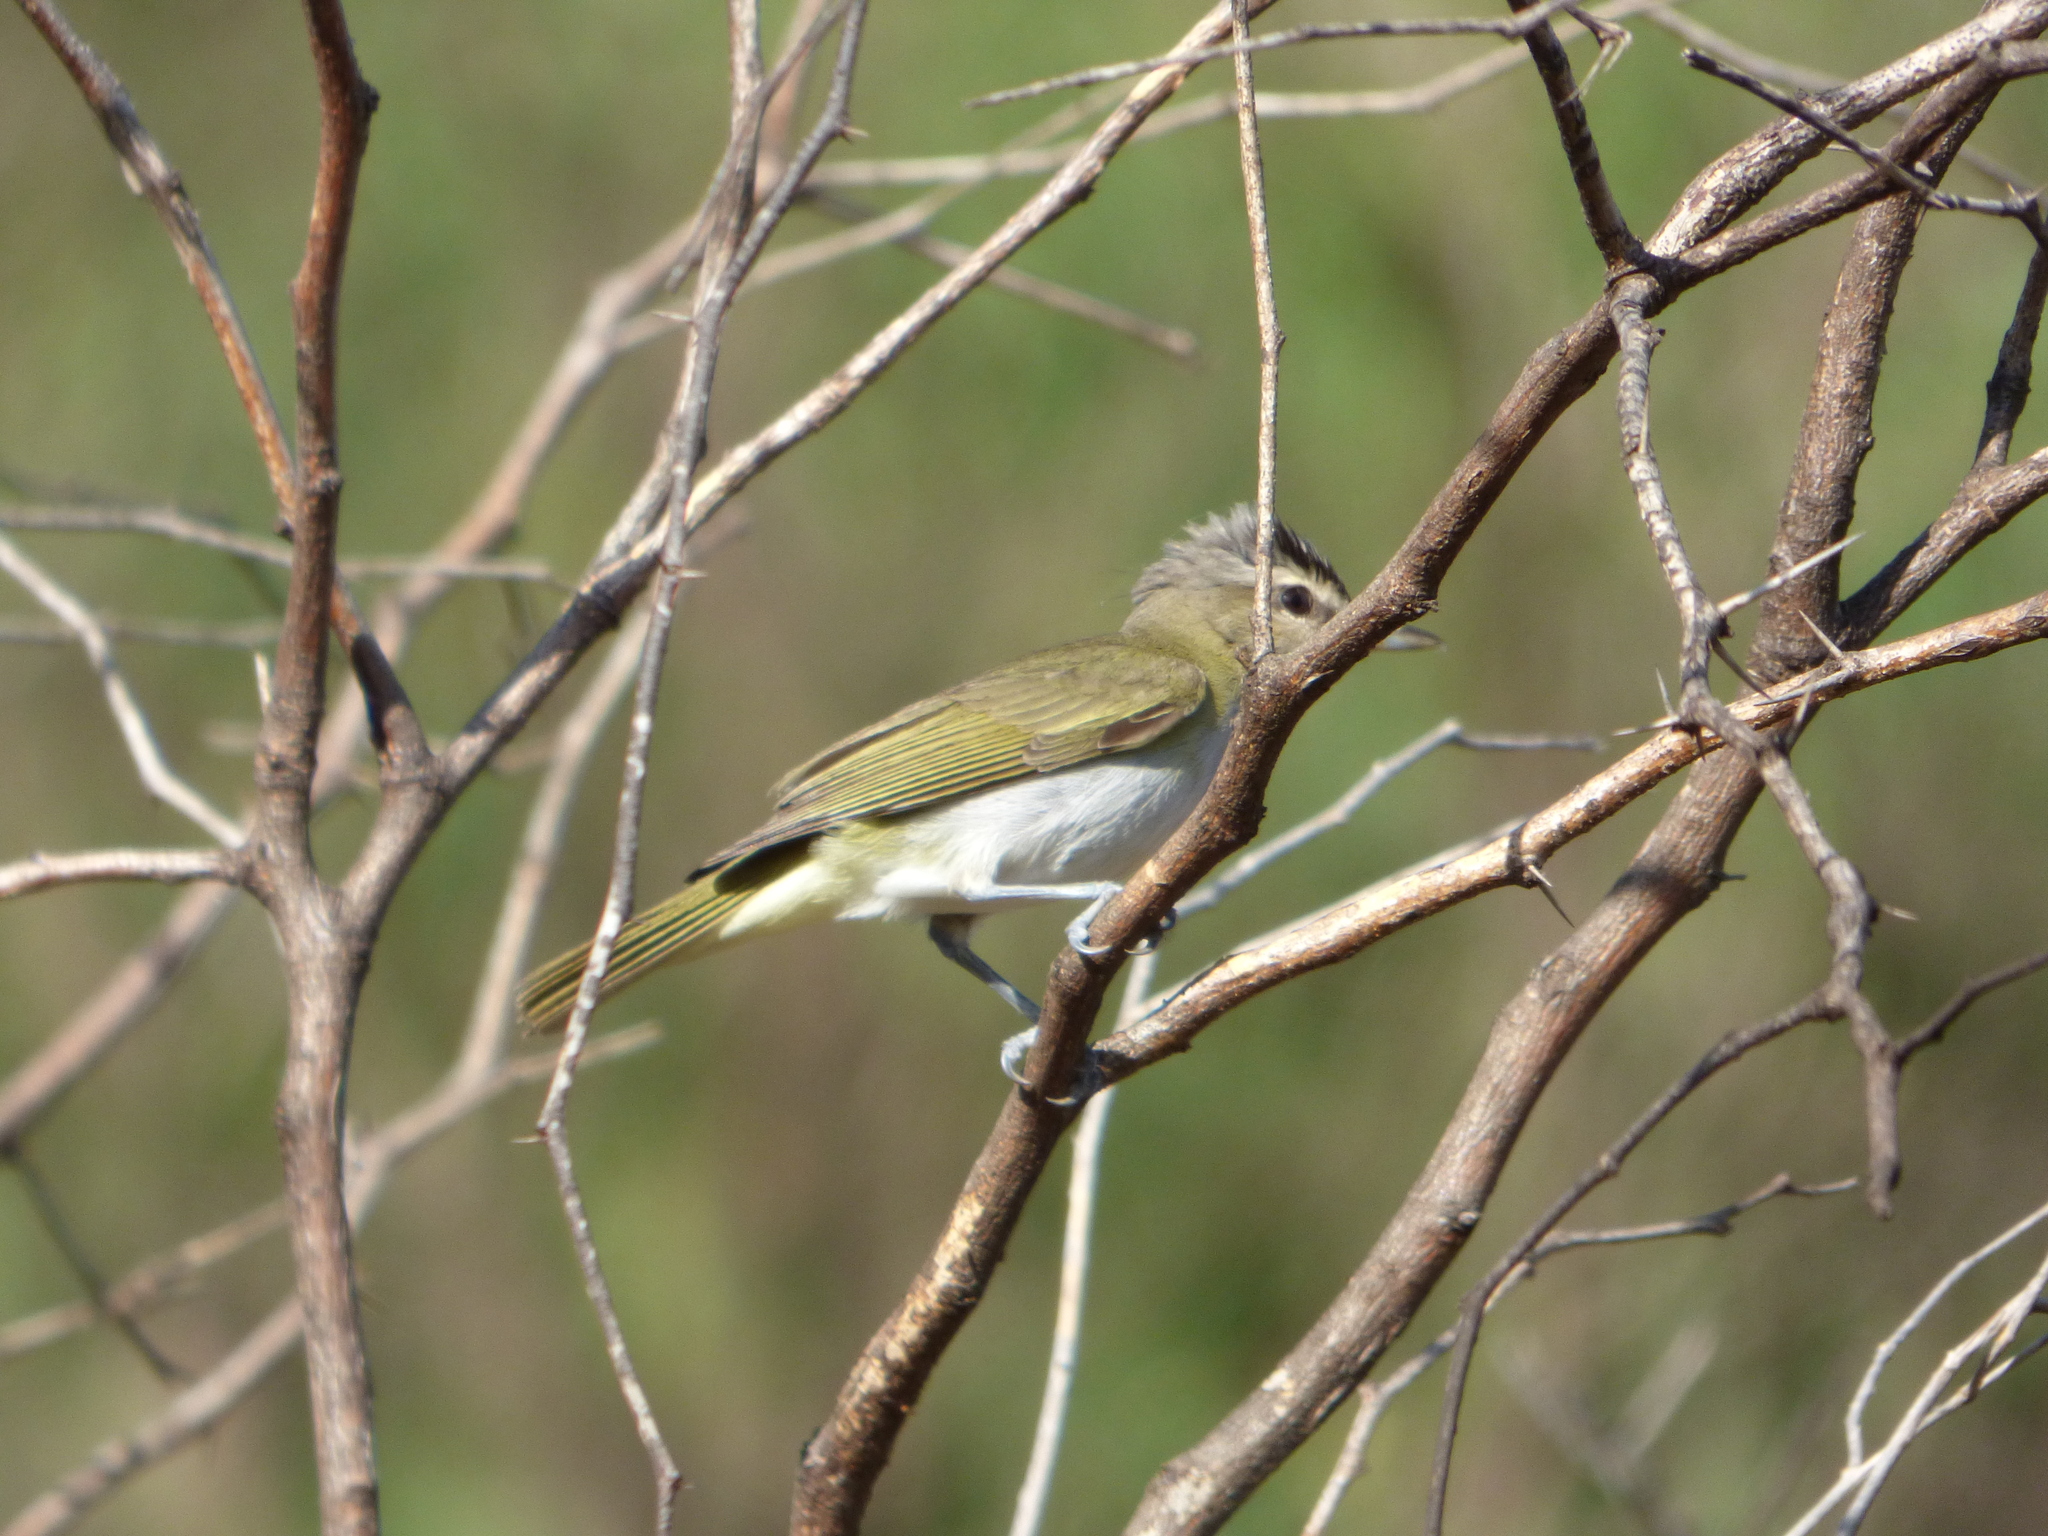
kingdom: Animalia
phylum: Chordata
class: Aves
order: Passeriformes
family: Vireonidae
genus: Vireo
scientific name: Vireo olivaceus
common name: Red-eyed vireo
